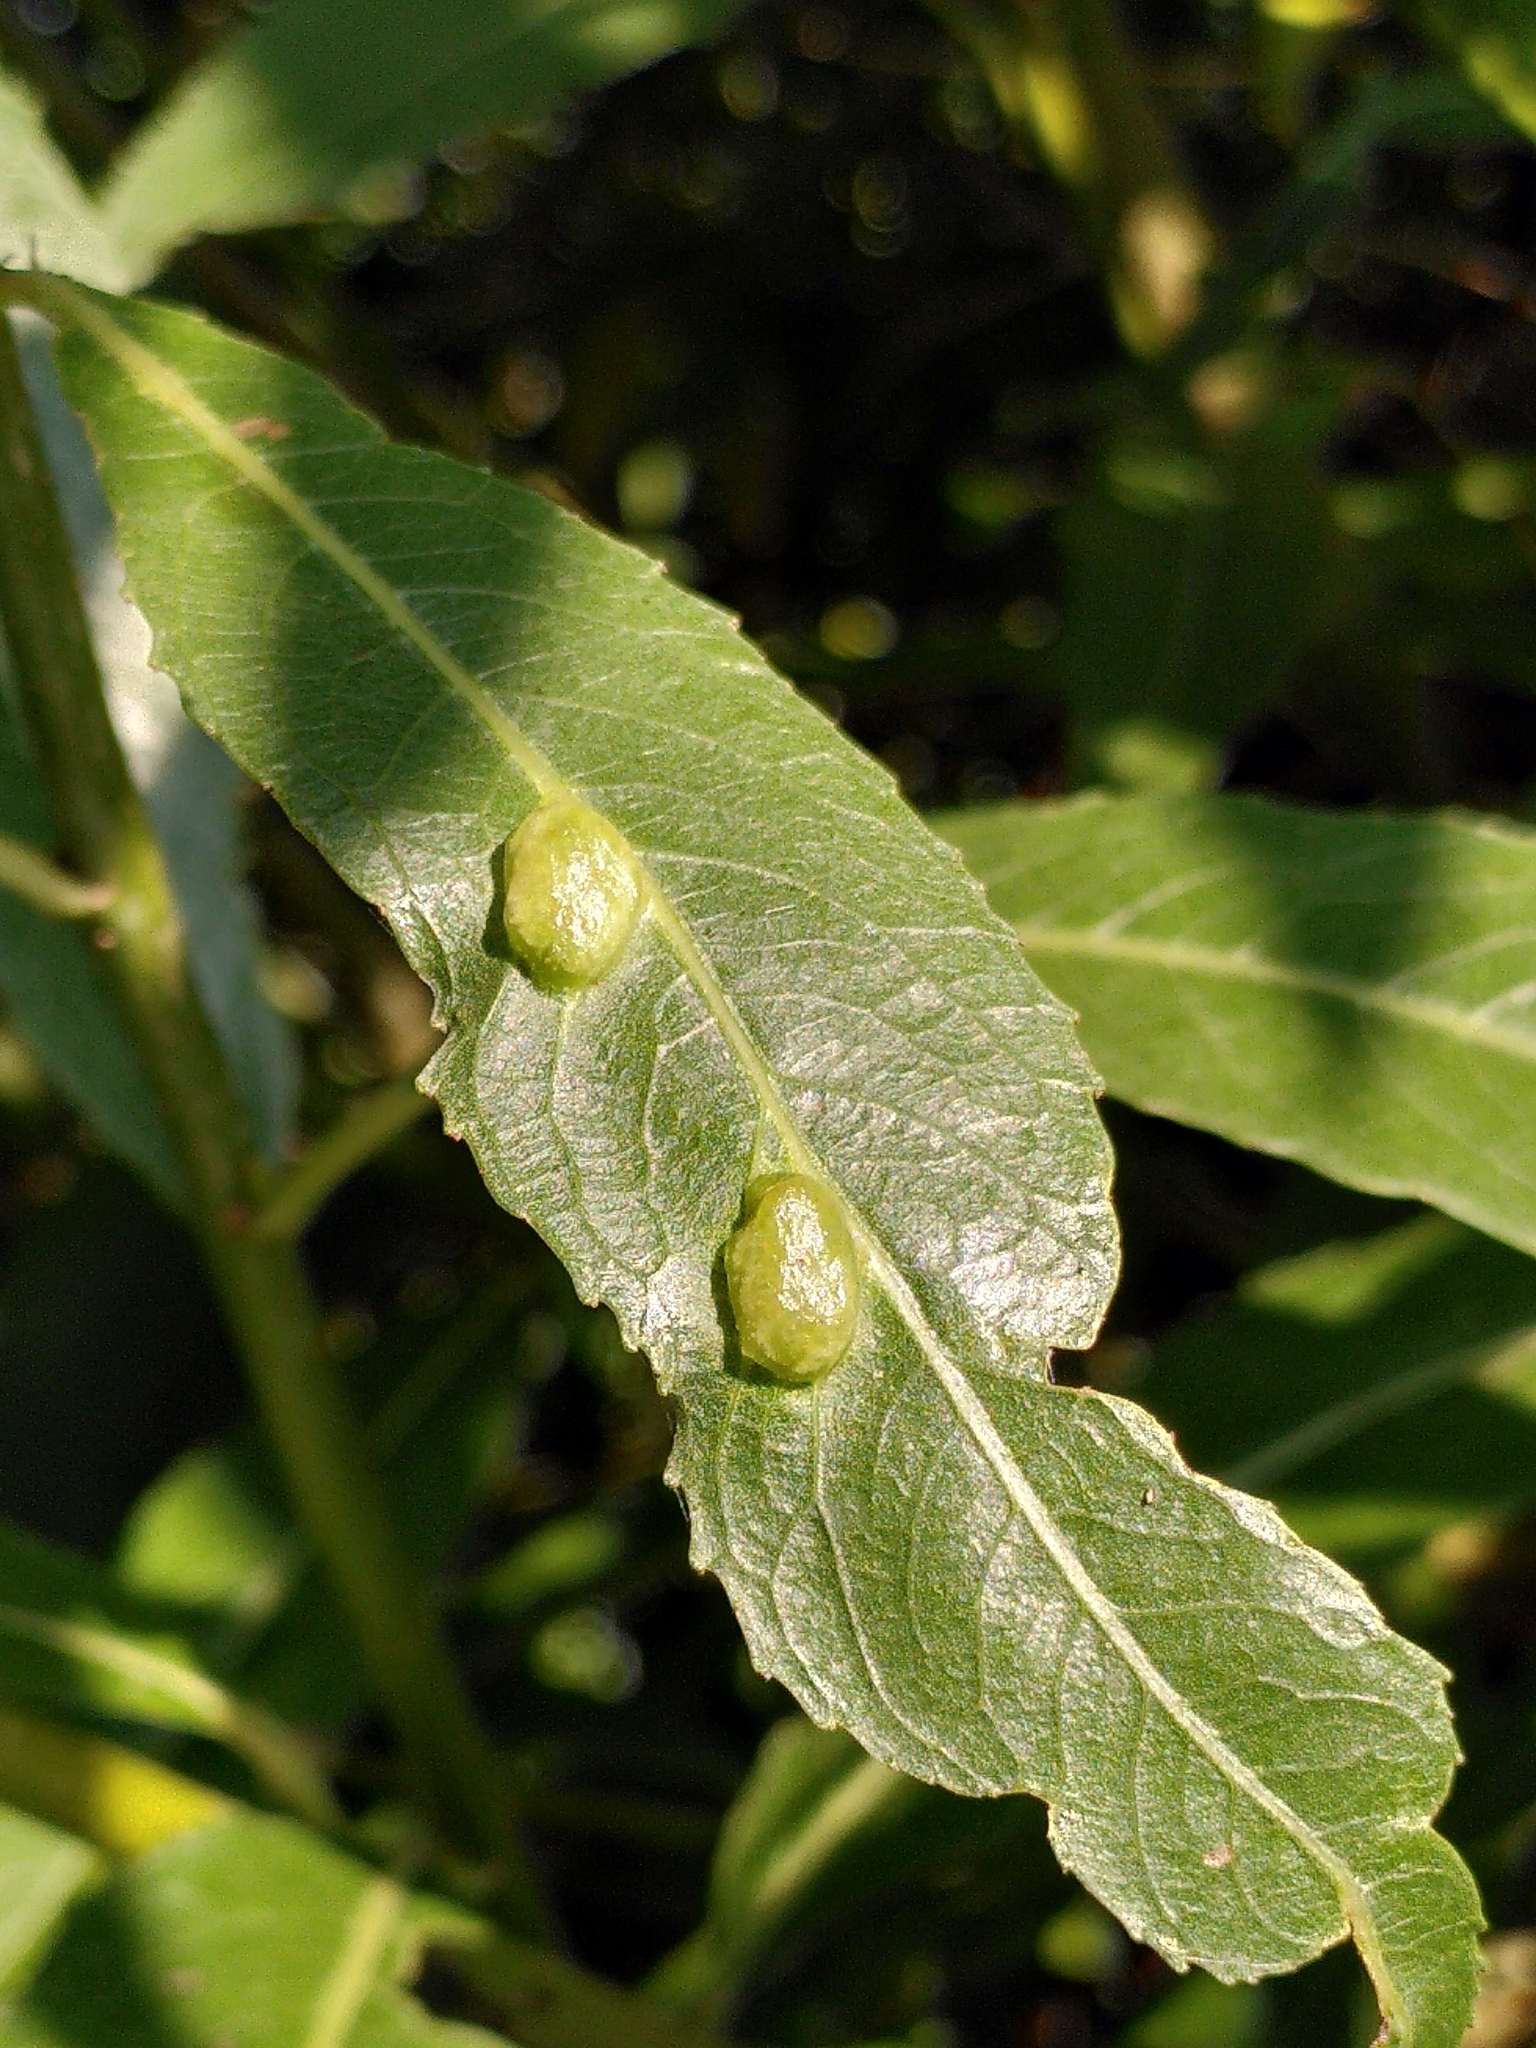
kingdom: Animalia
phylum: Arthropoda
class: Insecta
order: Hymenoptera
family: Tenthredinidae
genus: Pontania
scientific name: Pontania proxima
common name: Common sawfly
